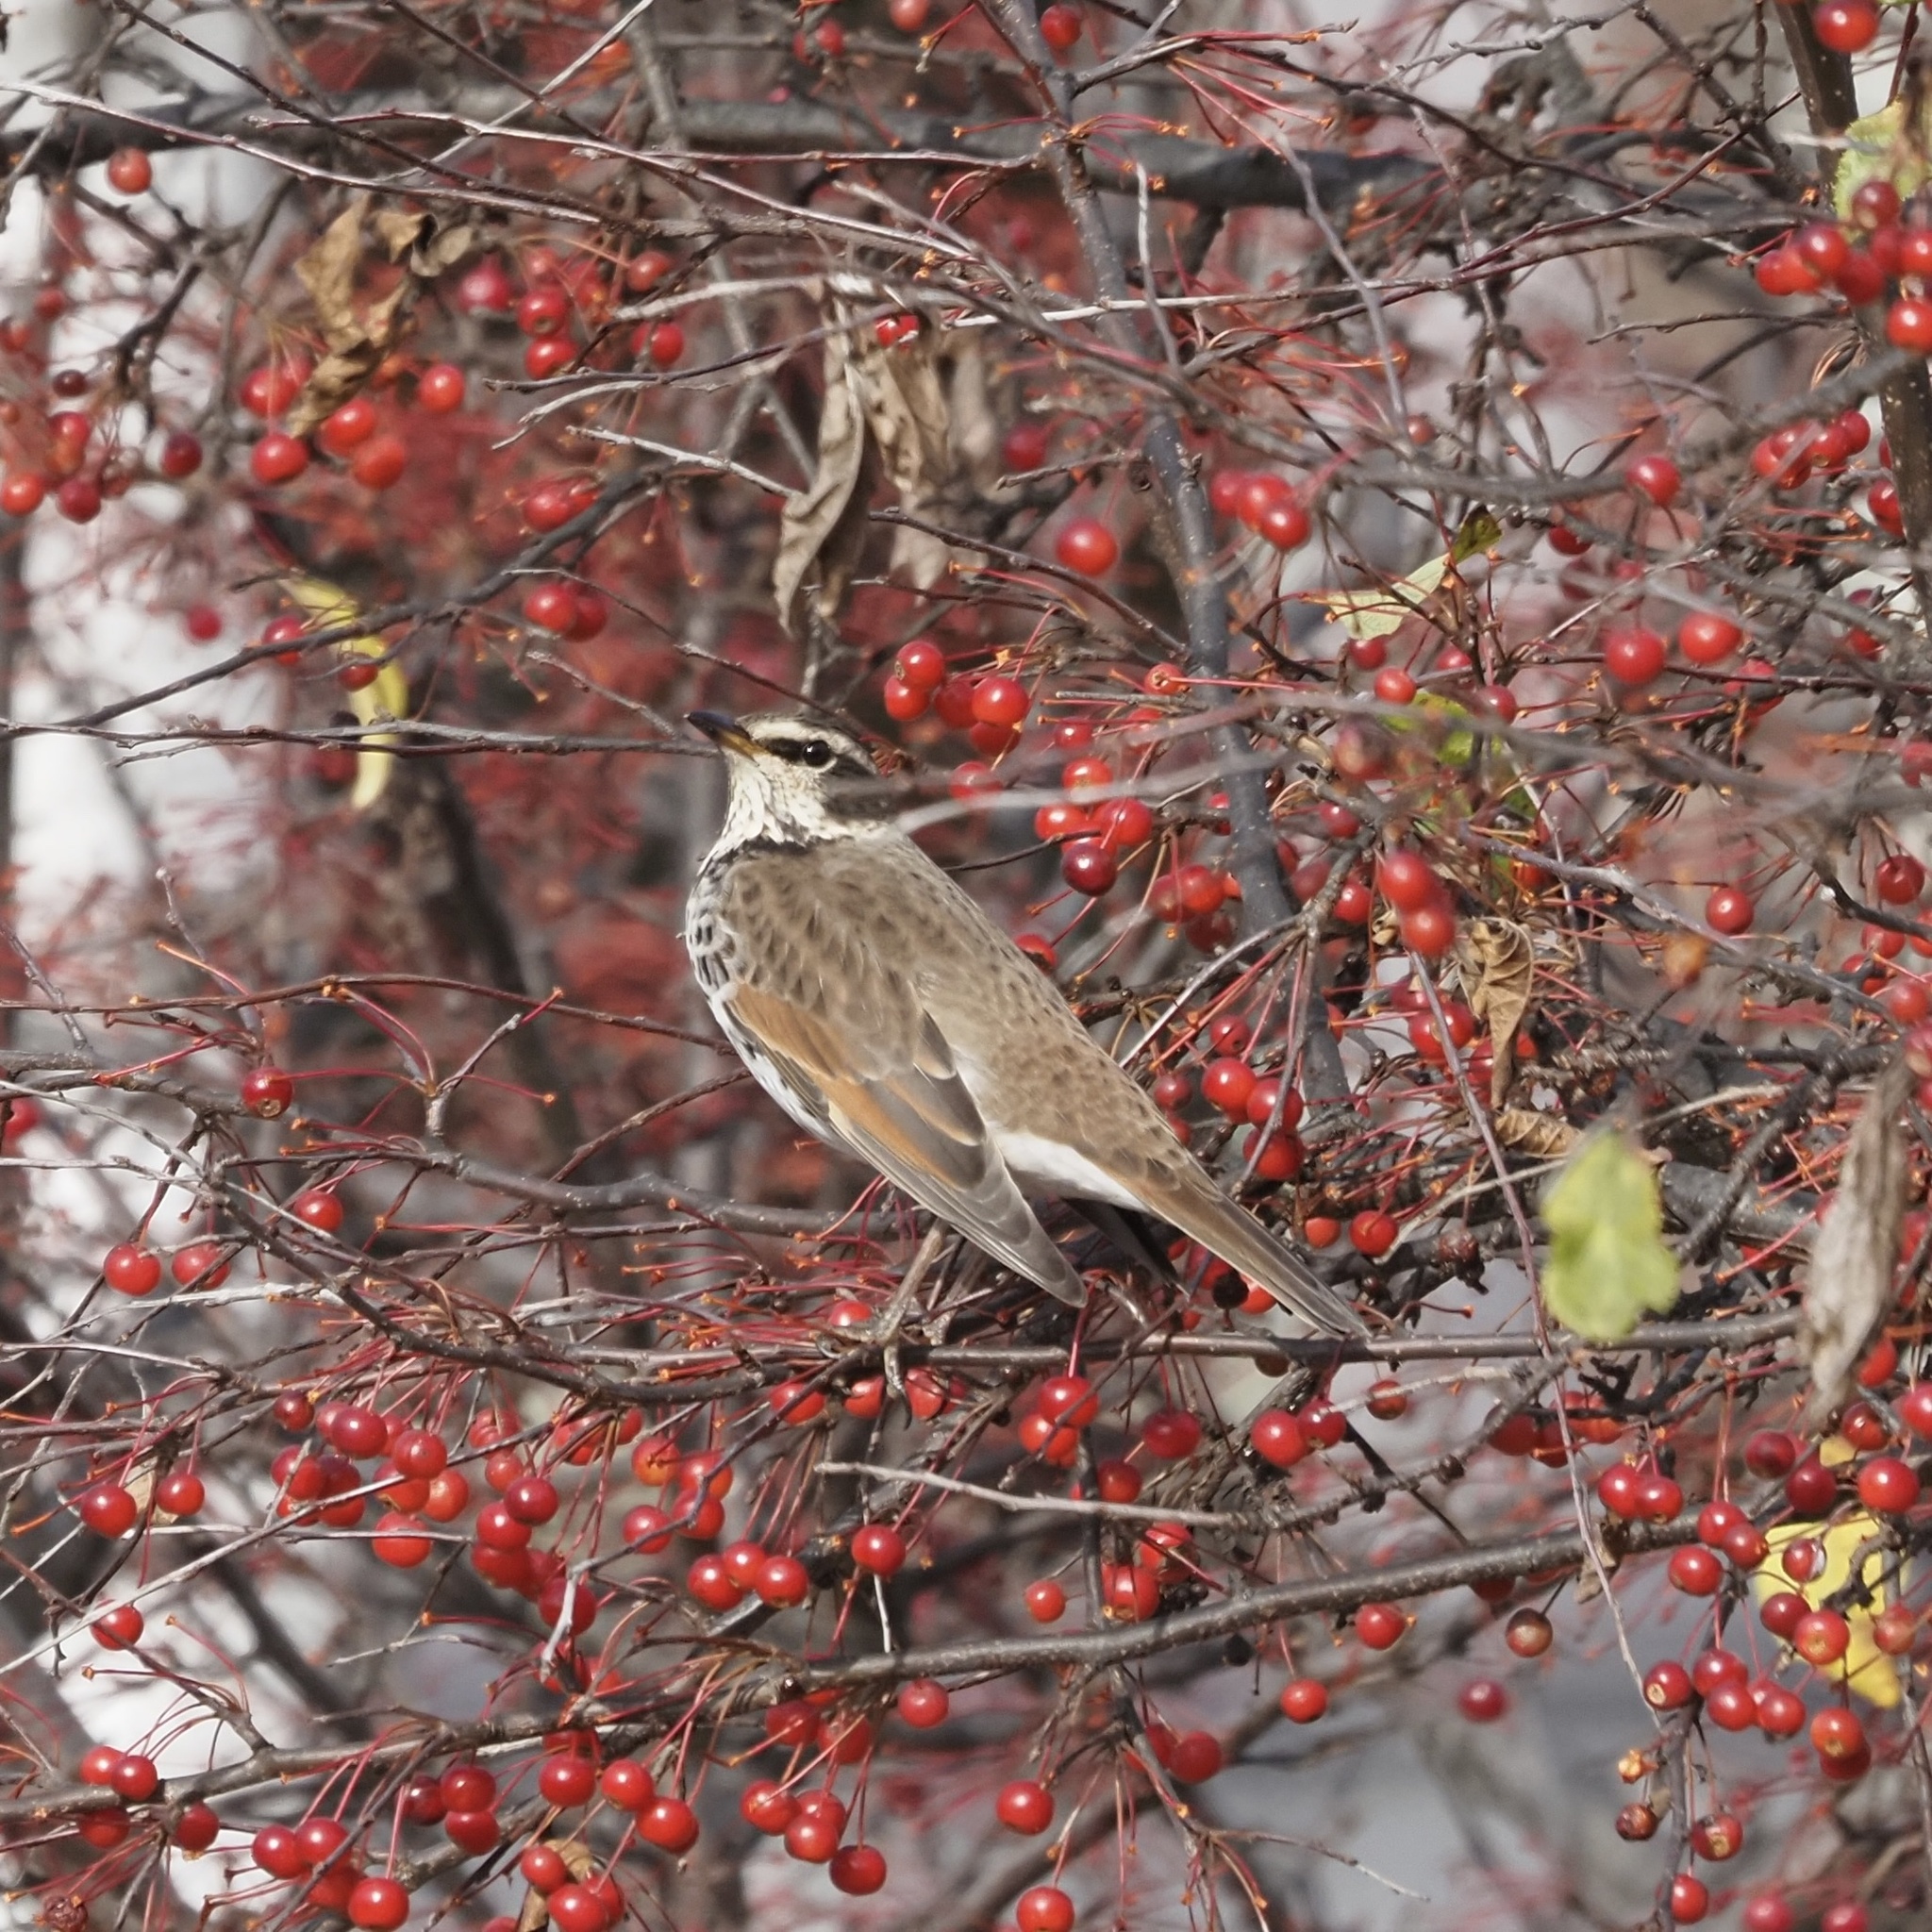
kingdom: Animalia
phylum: Chordata
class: Aves
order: Passeriformes
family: Turdidae
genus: Turdus
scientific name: Turdus eunomus
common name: Dusky thrush
